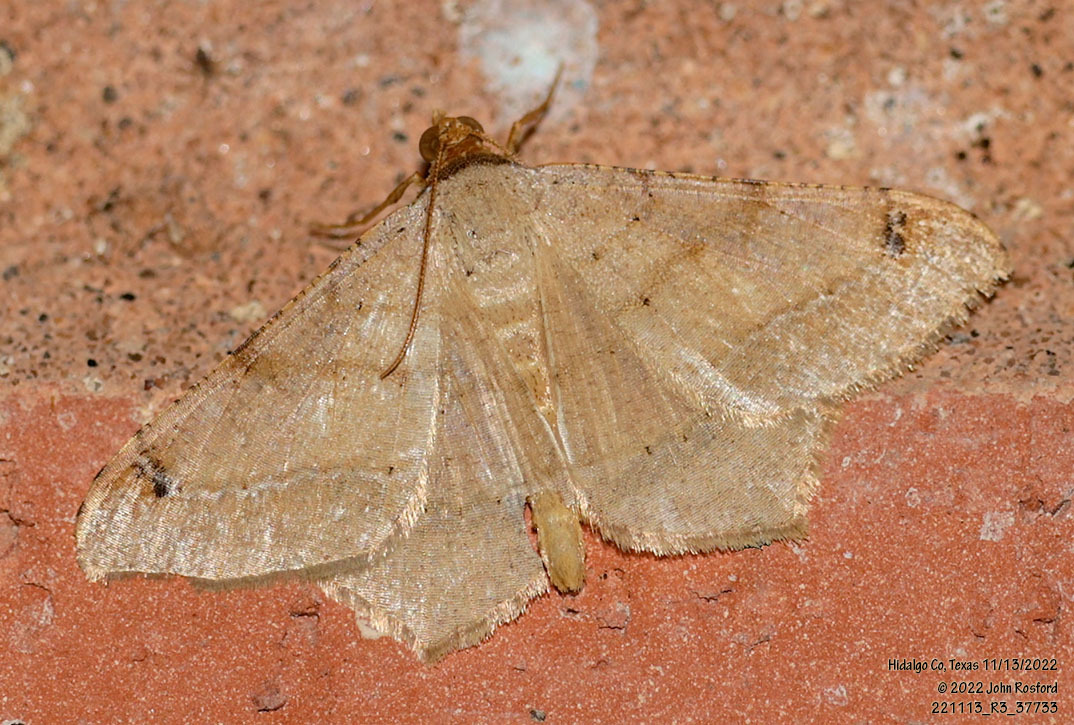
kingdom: Animalia
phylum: Arthropoda
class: Insecta
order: Lepidoptera
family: Geometridae
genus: Macaria
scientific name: Macaria abydata
